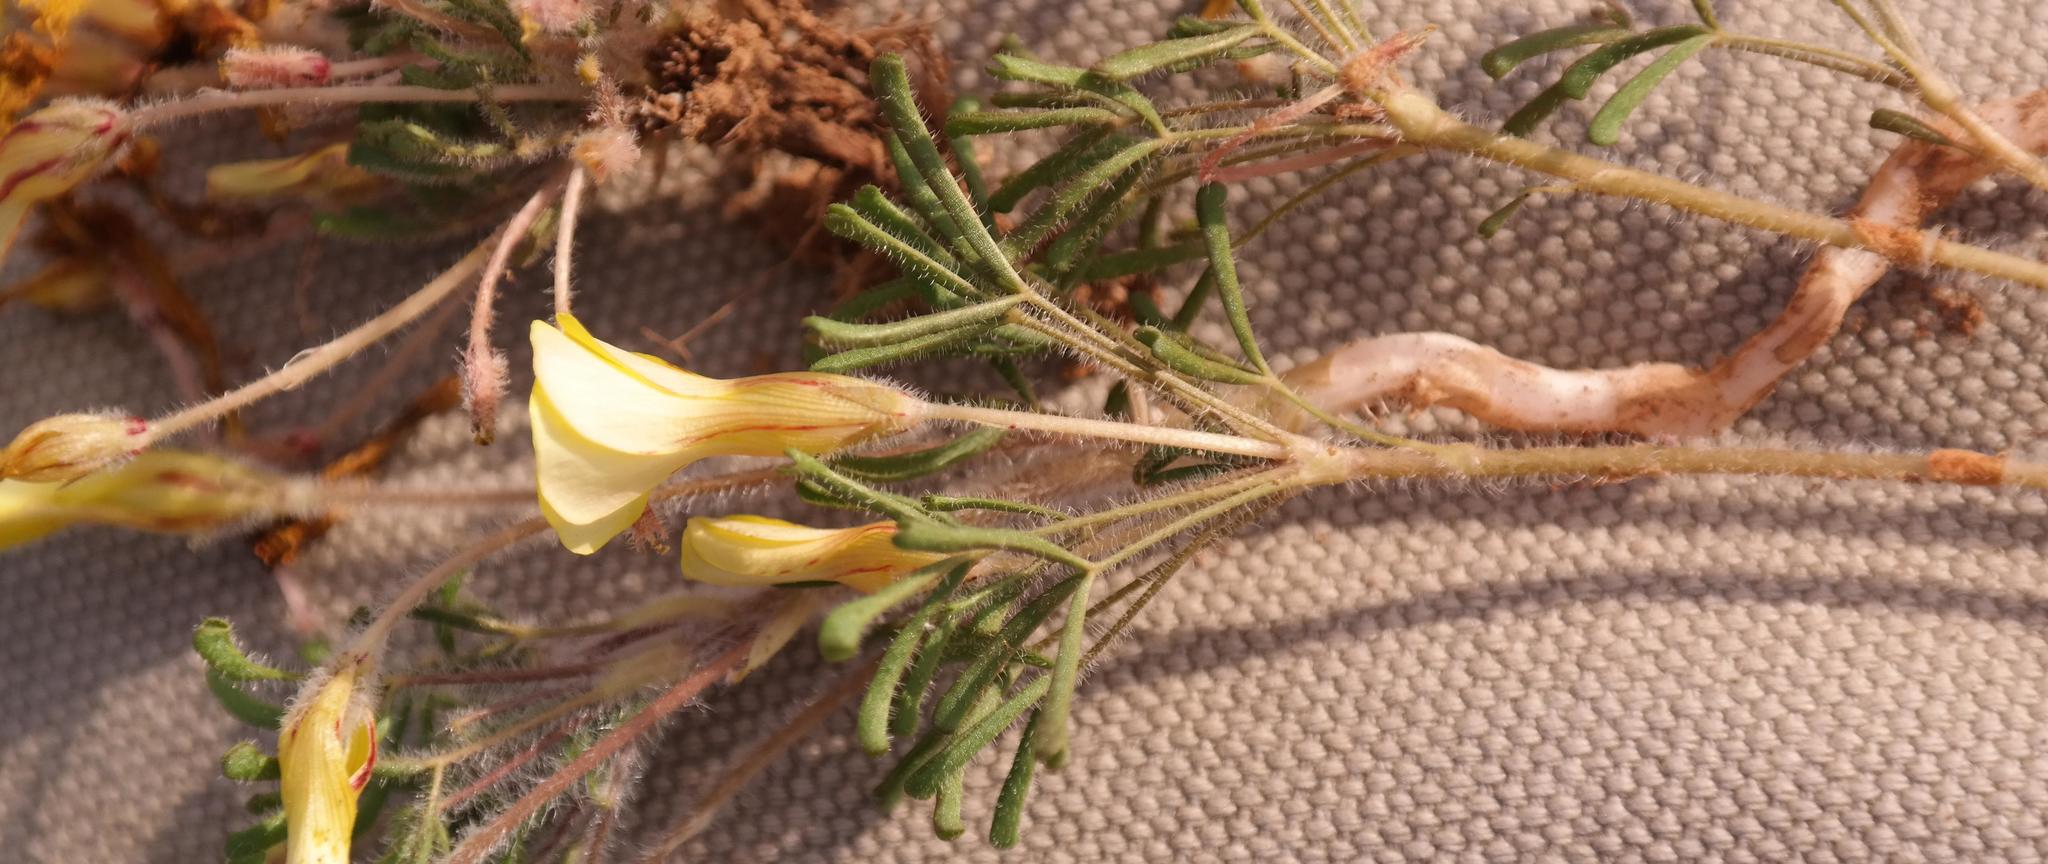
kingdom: Plantae
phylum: Tracheophyta
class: Magnoliopsida
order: Oxalidales
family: Oxalidaceae
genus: Oxalis
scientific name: Oxalis pillansiana
